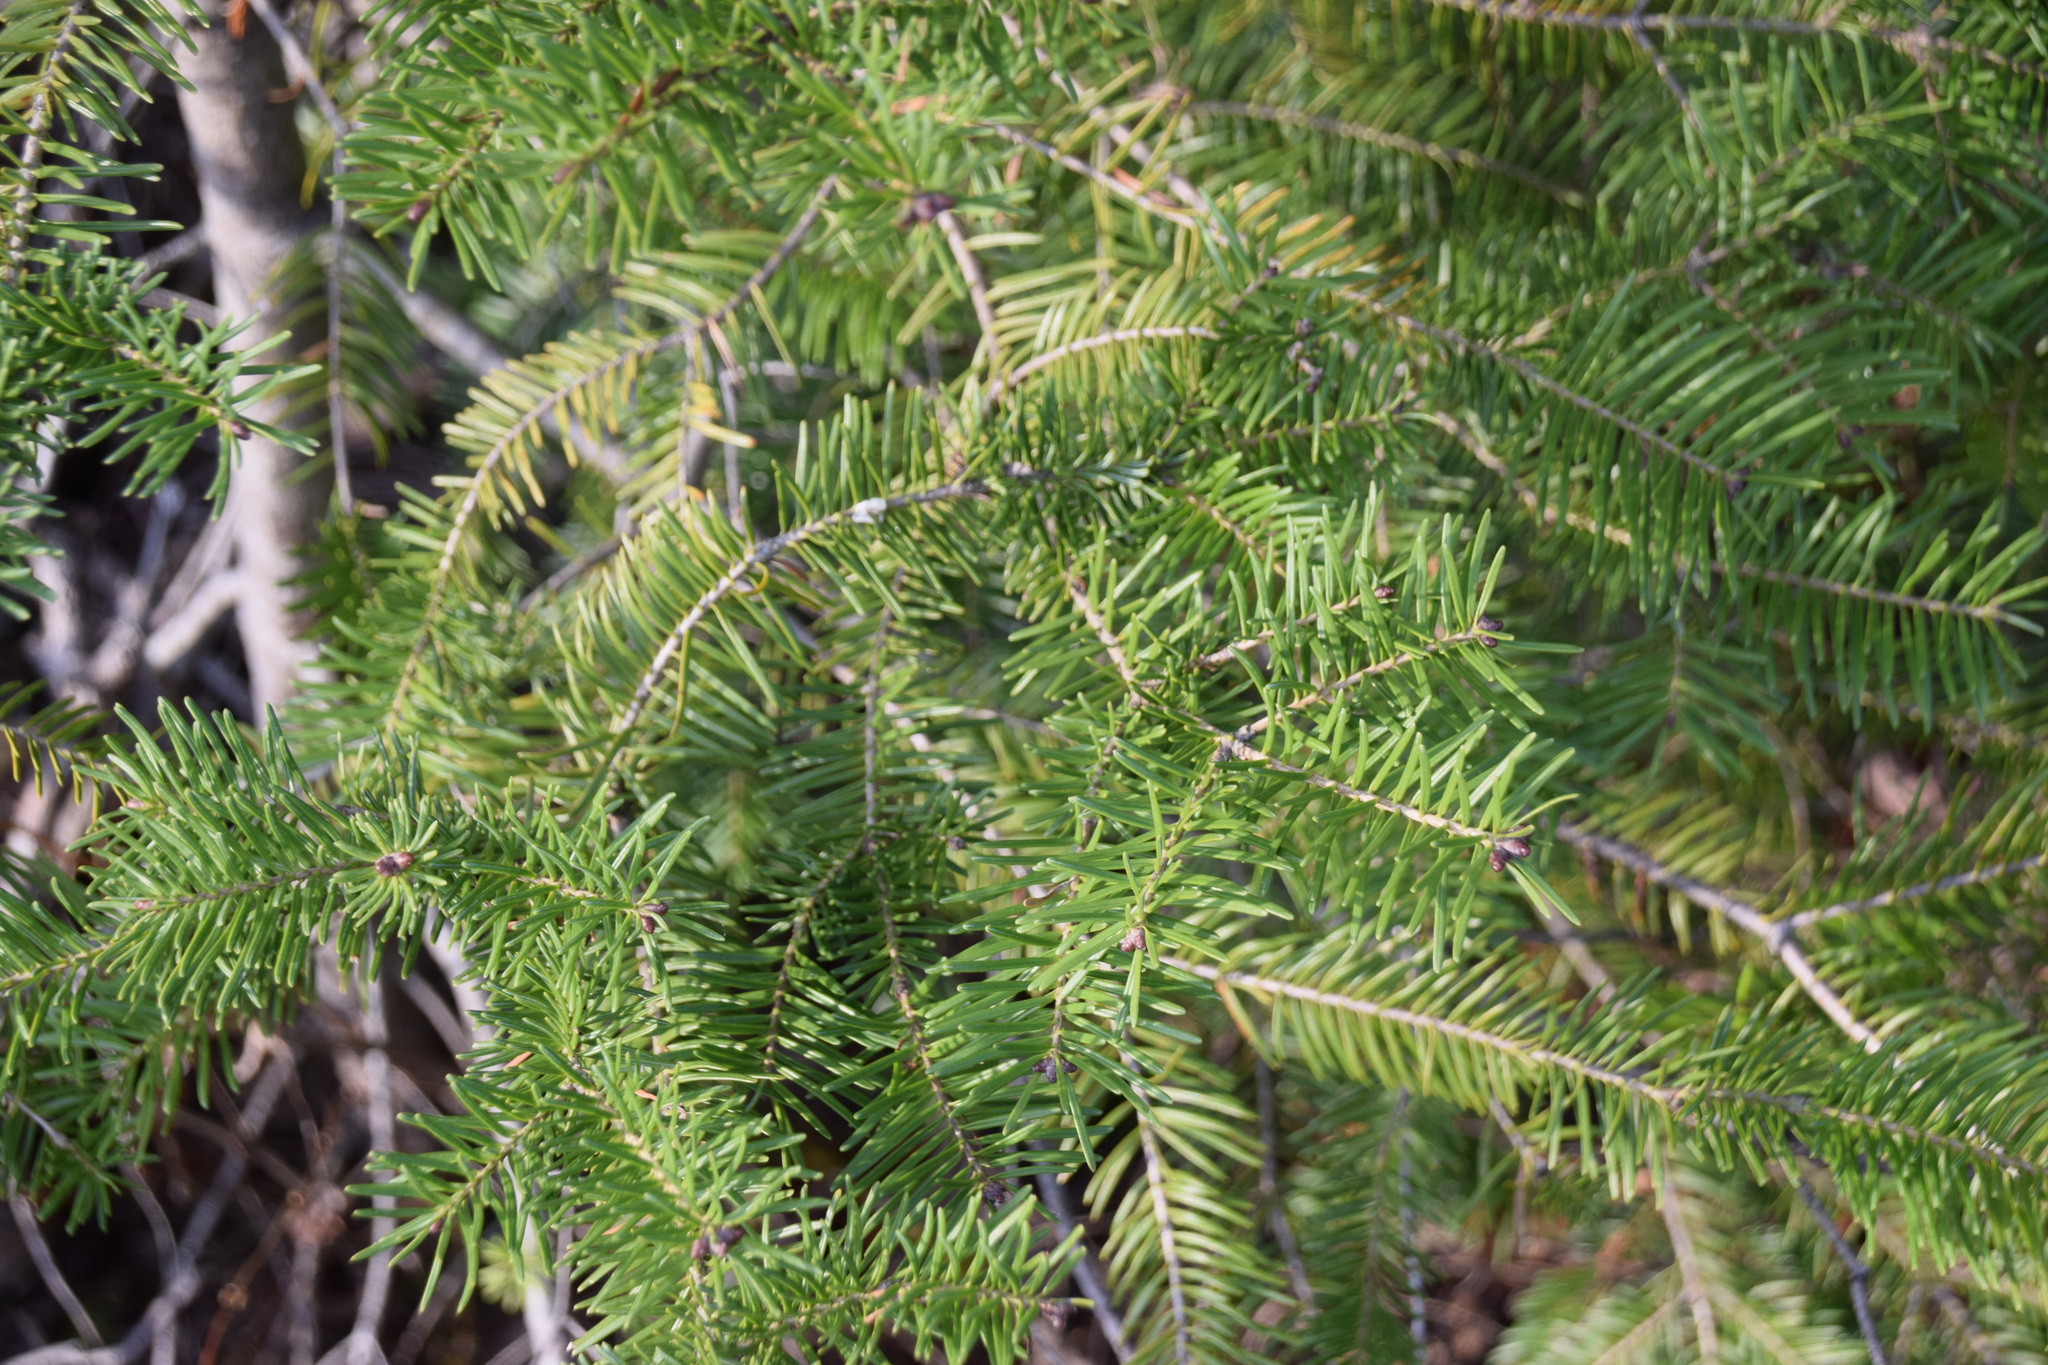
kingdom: Plantae
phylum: Tracheophyta
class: Pinopsida
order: Pinales
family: Pinaceae
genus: Abies
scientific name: Abies balsamea
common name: Balsam fir
